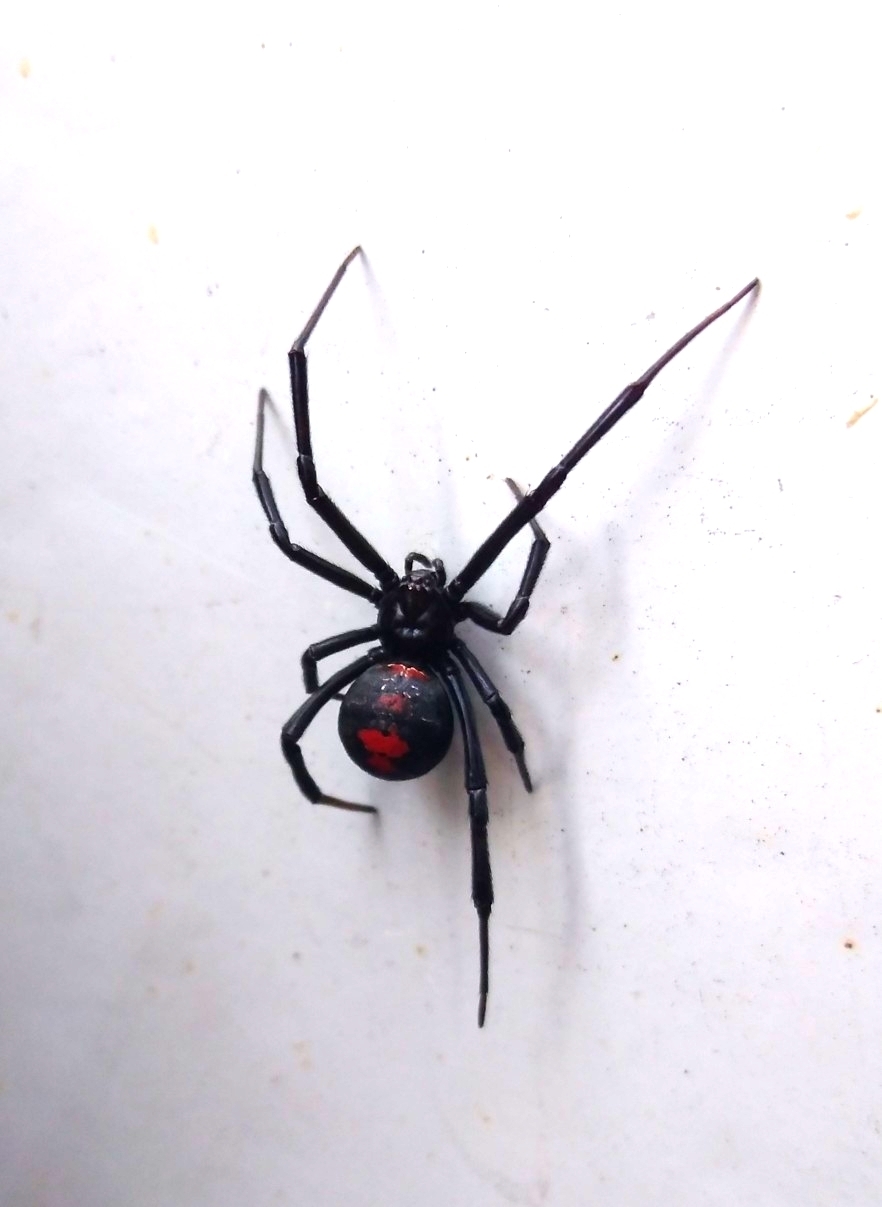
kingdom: Animalia
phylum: Arthropoda
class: Arachnida
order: Araneae
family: Theridiidae
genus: Latrodectus
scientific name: Latrodectus mirabilis
